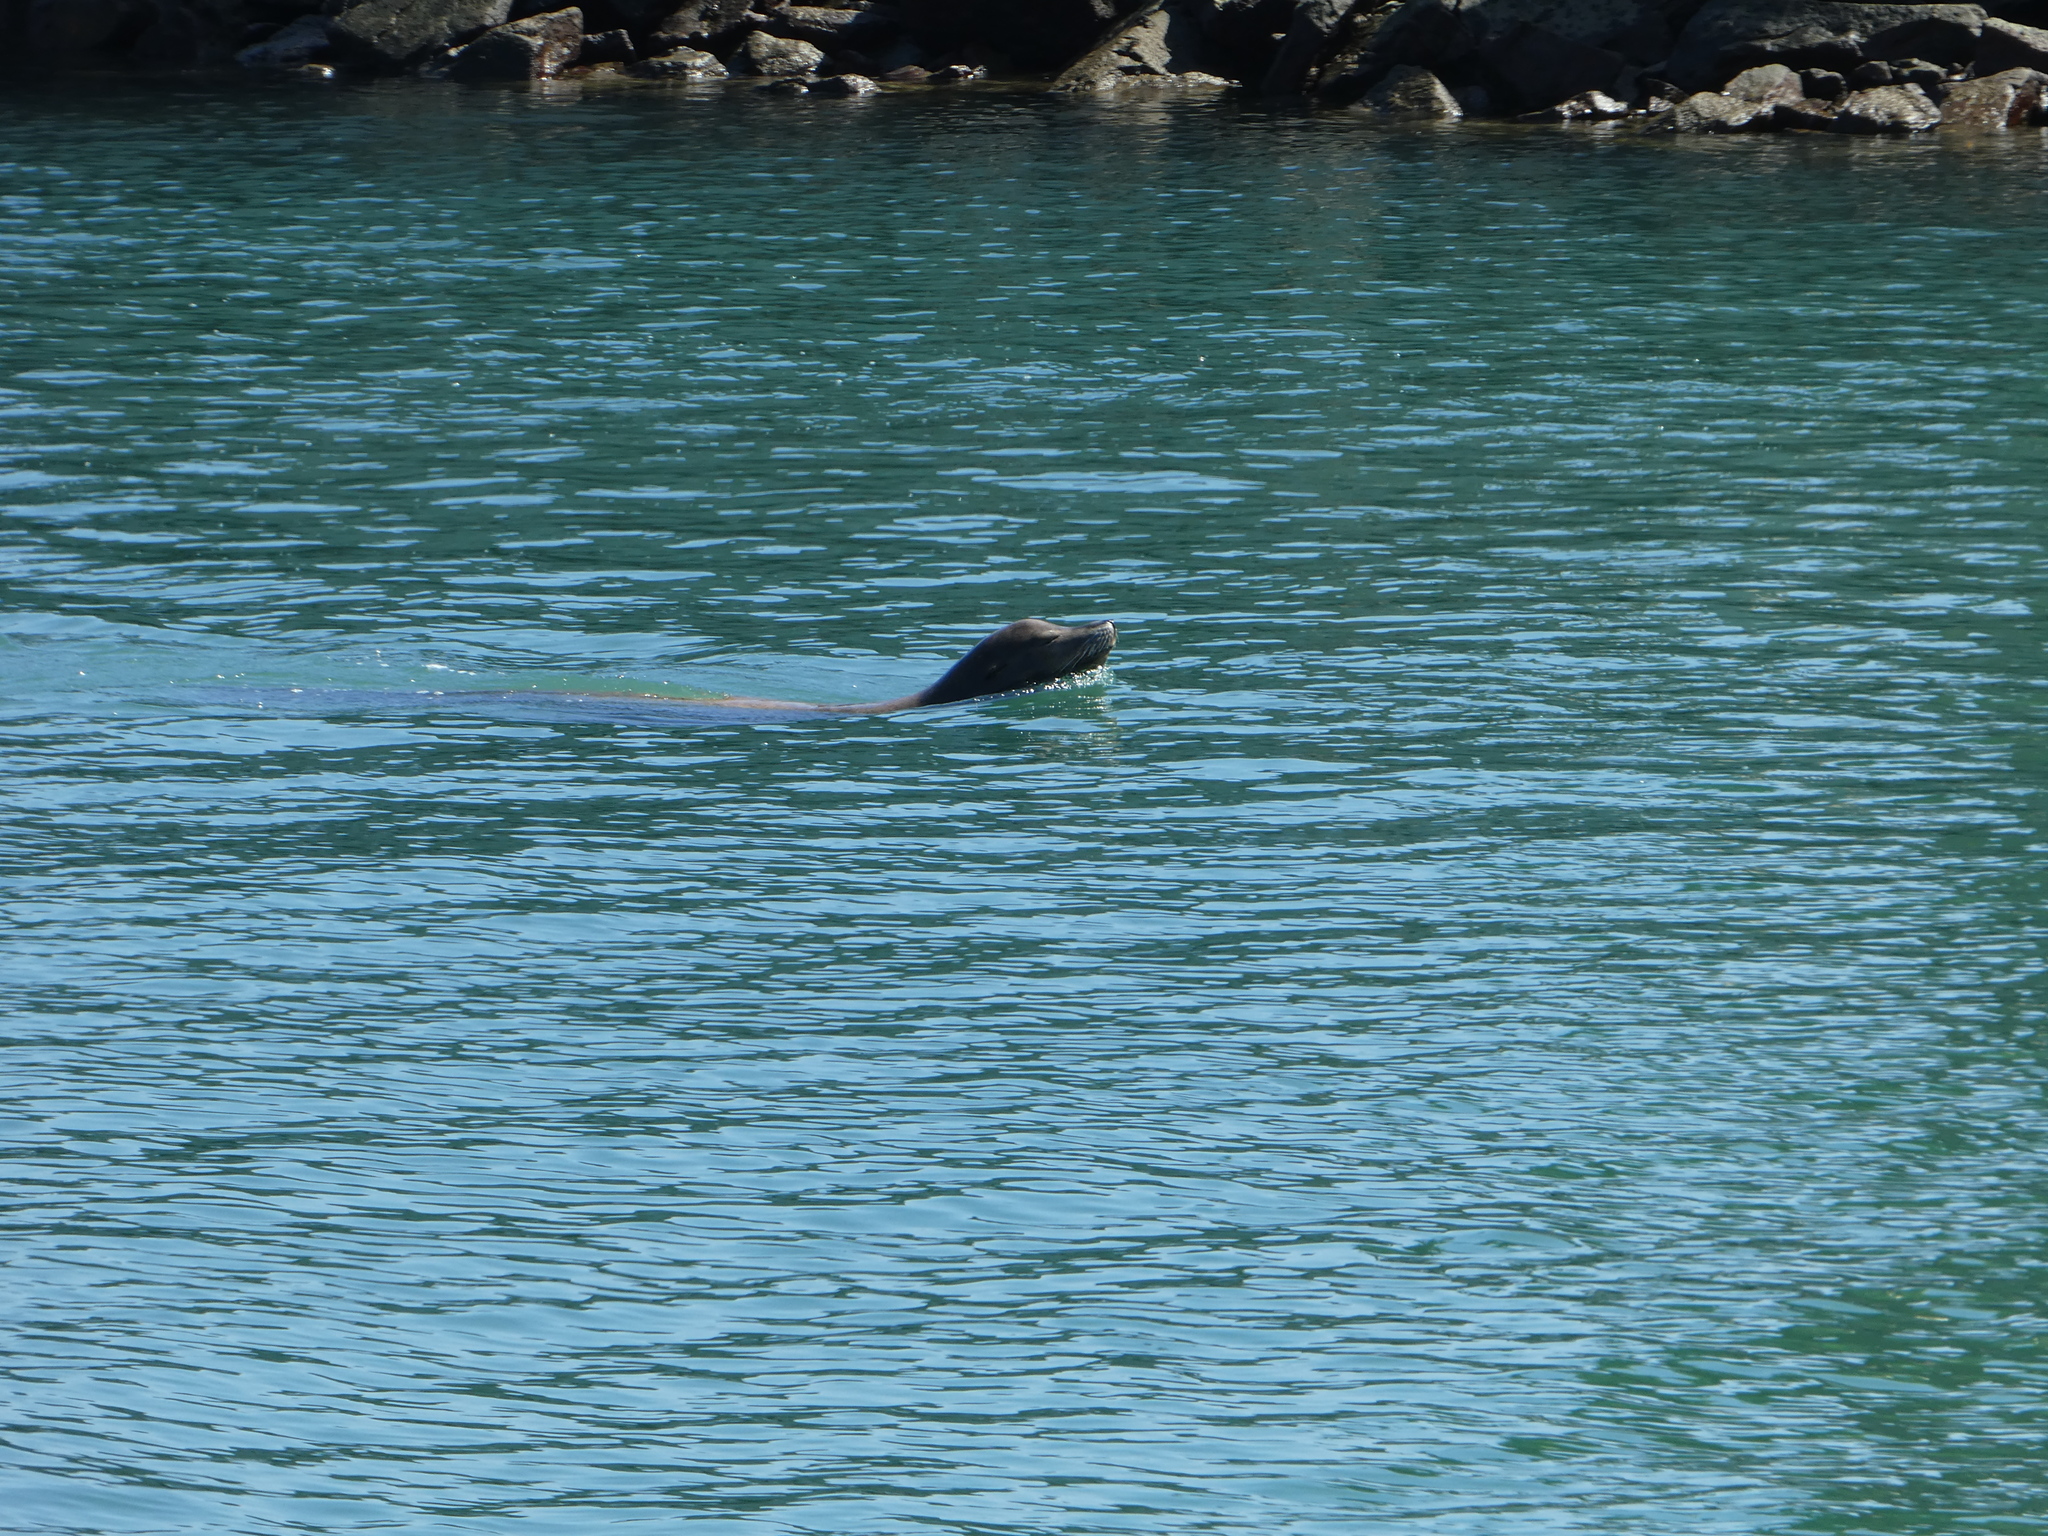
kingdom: Animalia
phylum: Chordata
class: Mammalia
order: Carnivora
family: Otariidae
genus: Zalophus
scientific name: Zalophus californianus
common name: California sea lion
